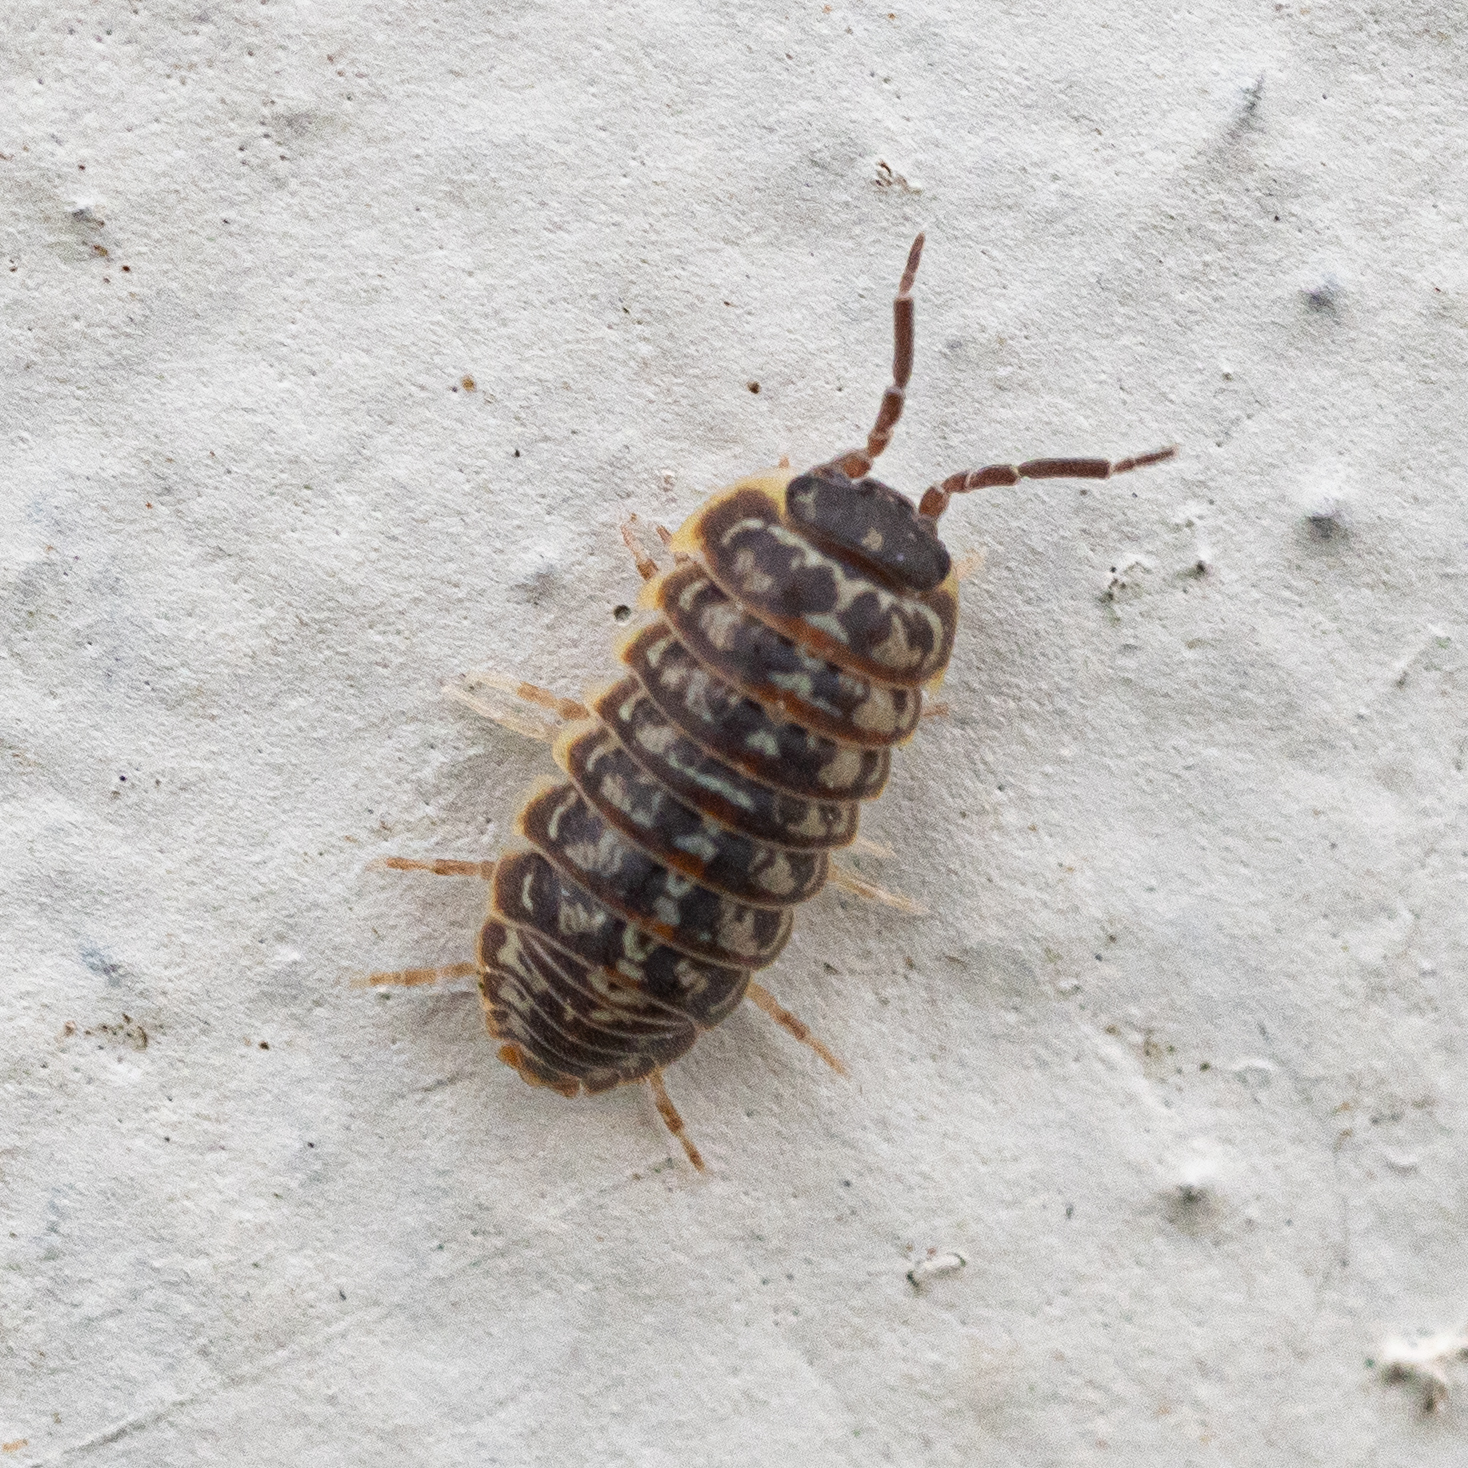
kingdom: Animalia
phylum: Arthropoda
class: Malacostraca
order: Isopoda
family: Armadillidiidae
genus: Armadillidium
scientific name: Armadillidium versicolor
